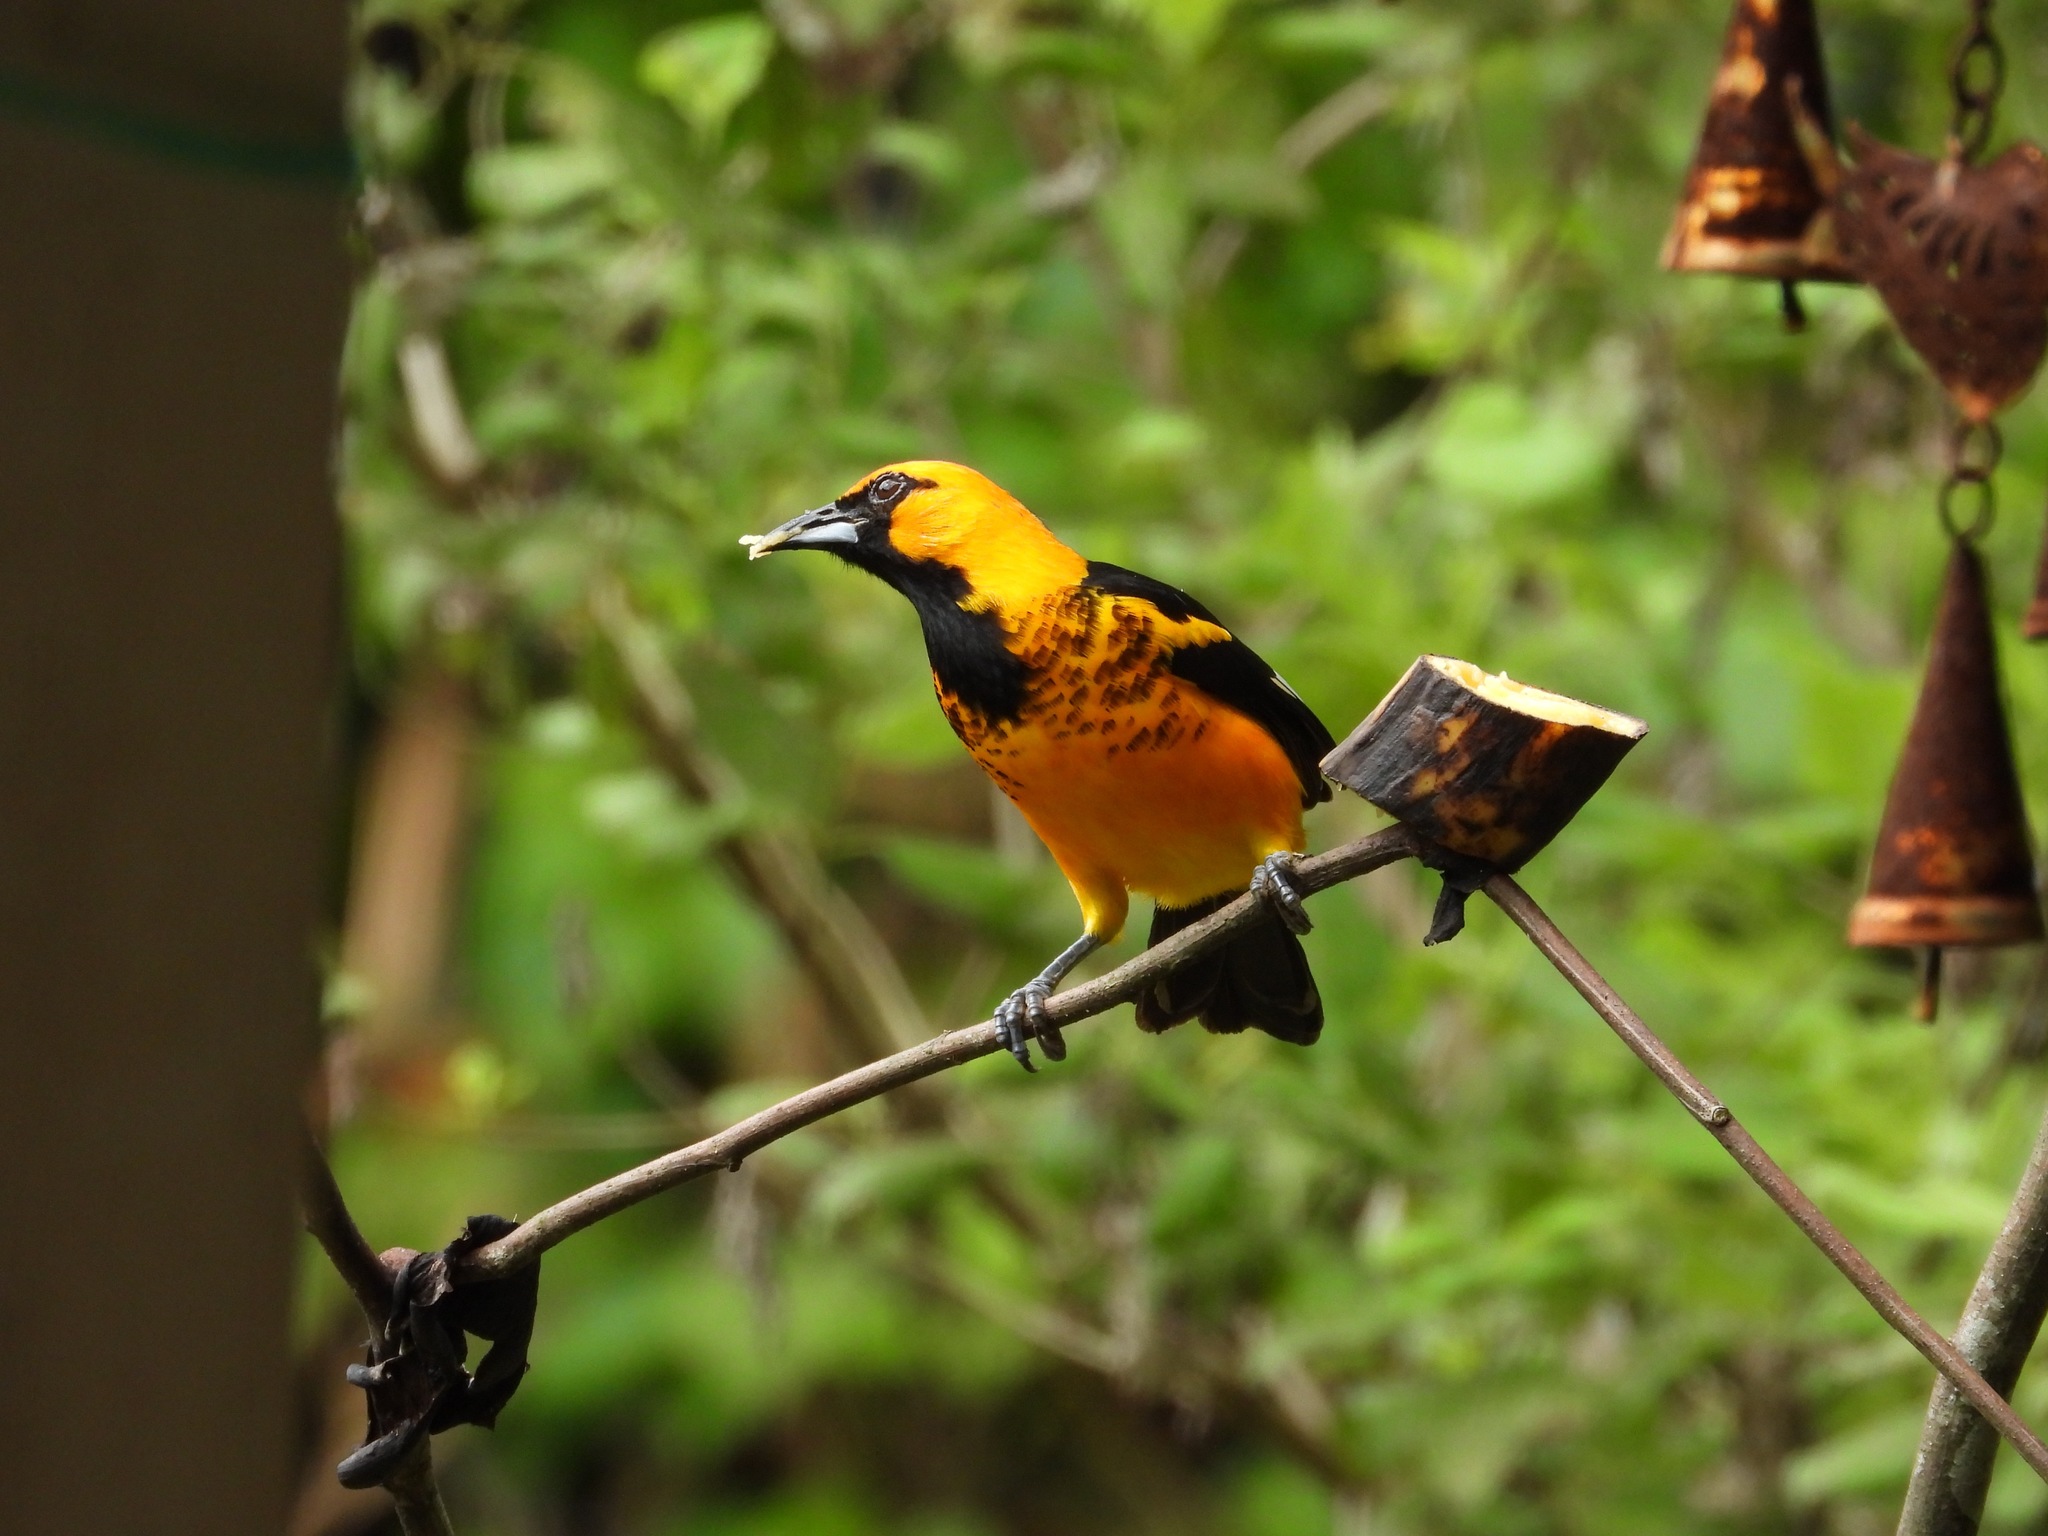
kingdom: Animalia
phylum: Chordata
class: Aves
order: Passeriformes
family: Icteridae
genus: Icterus
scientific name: Icterus pectoralis
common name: Spot-breasted oriole
